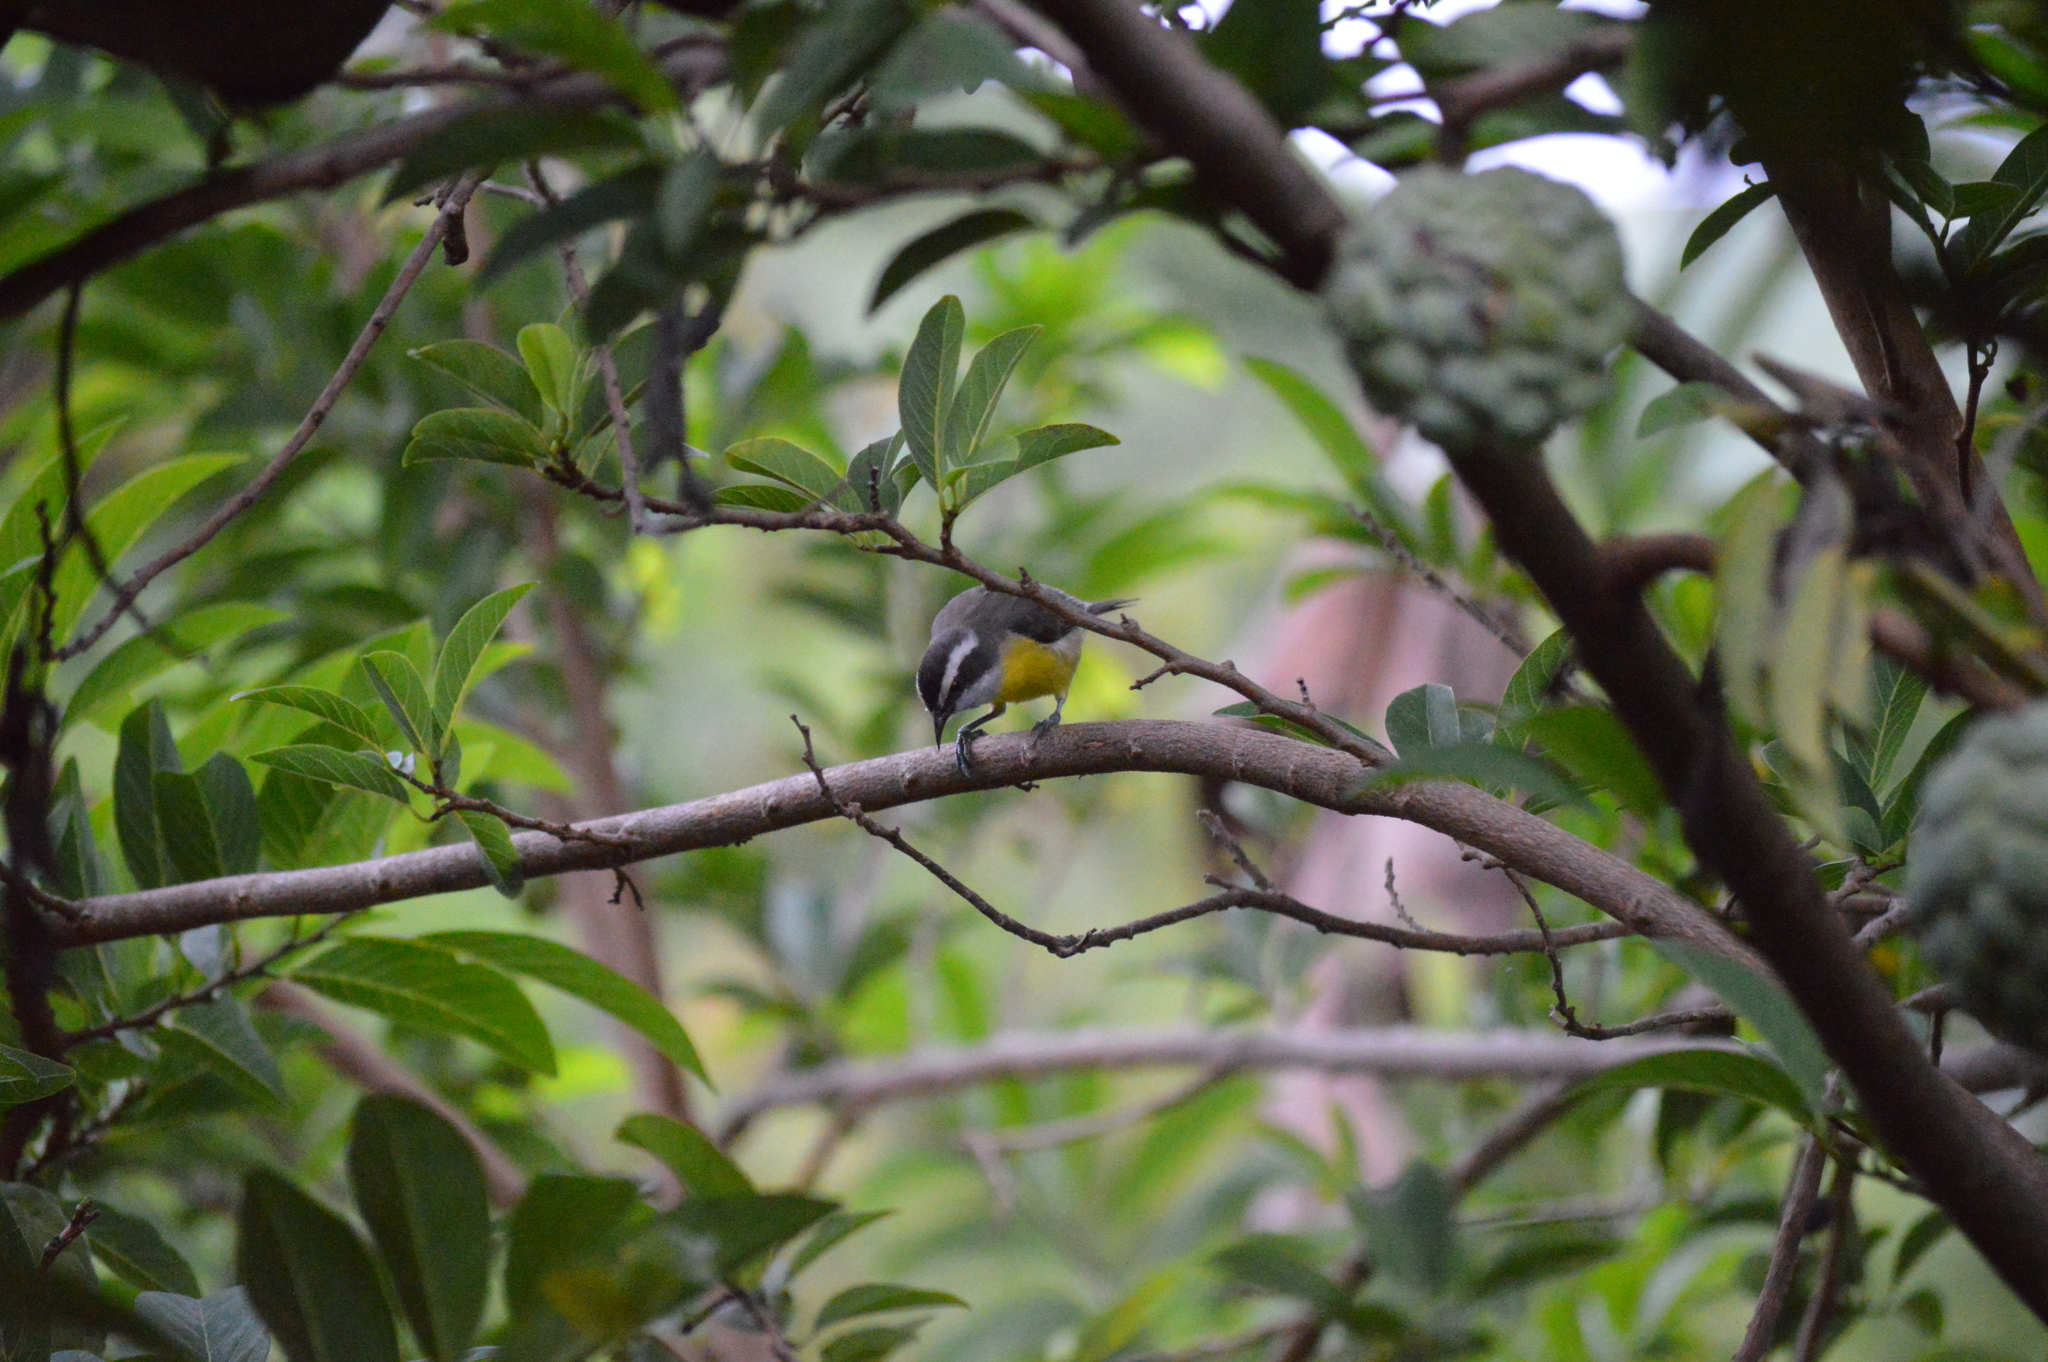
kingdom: Animalia
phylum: Chordata
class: Aves
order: Passeriformes
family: Thraupidae
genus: Coereba
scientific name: Coereba flaveola
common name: Bananaquit
